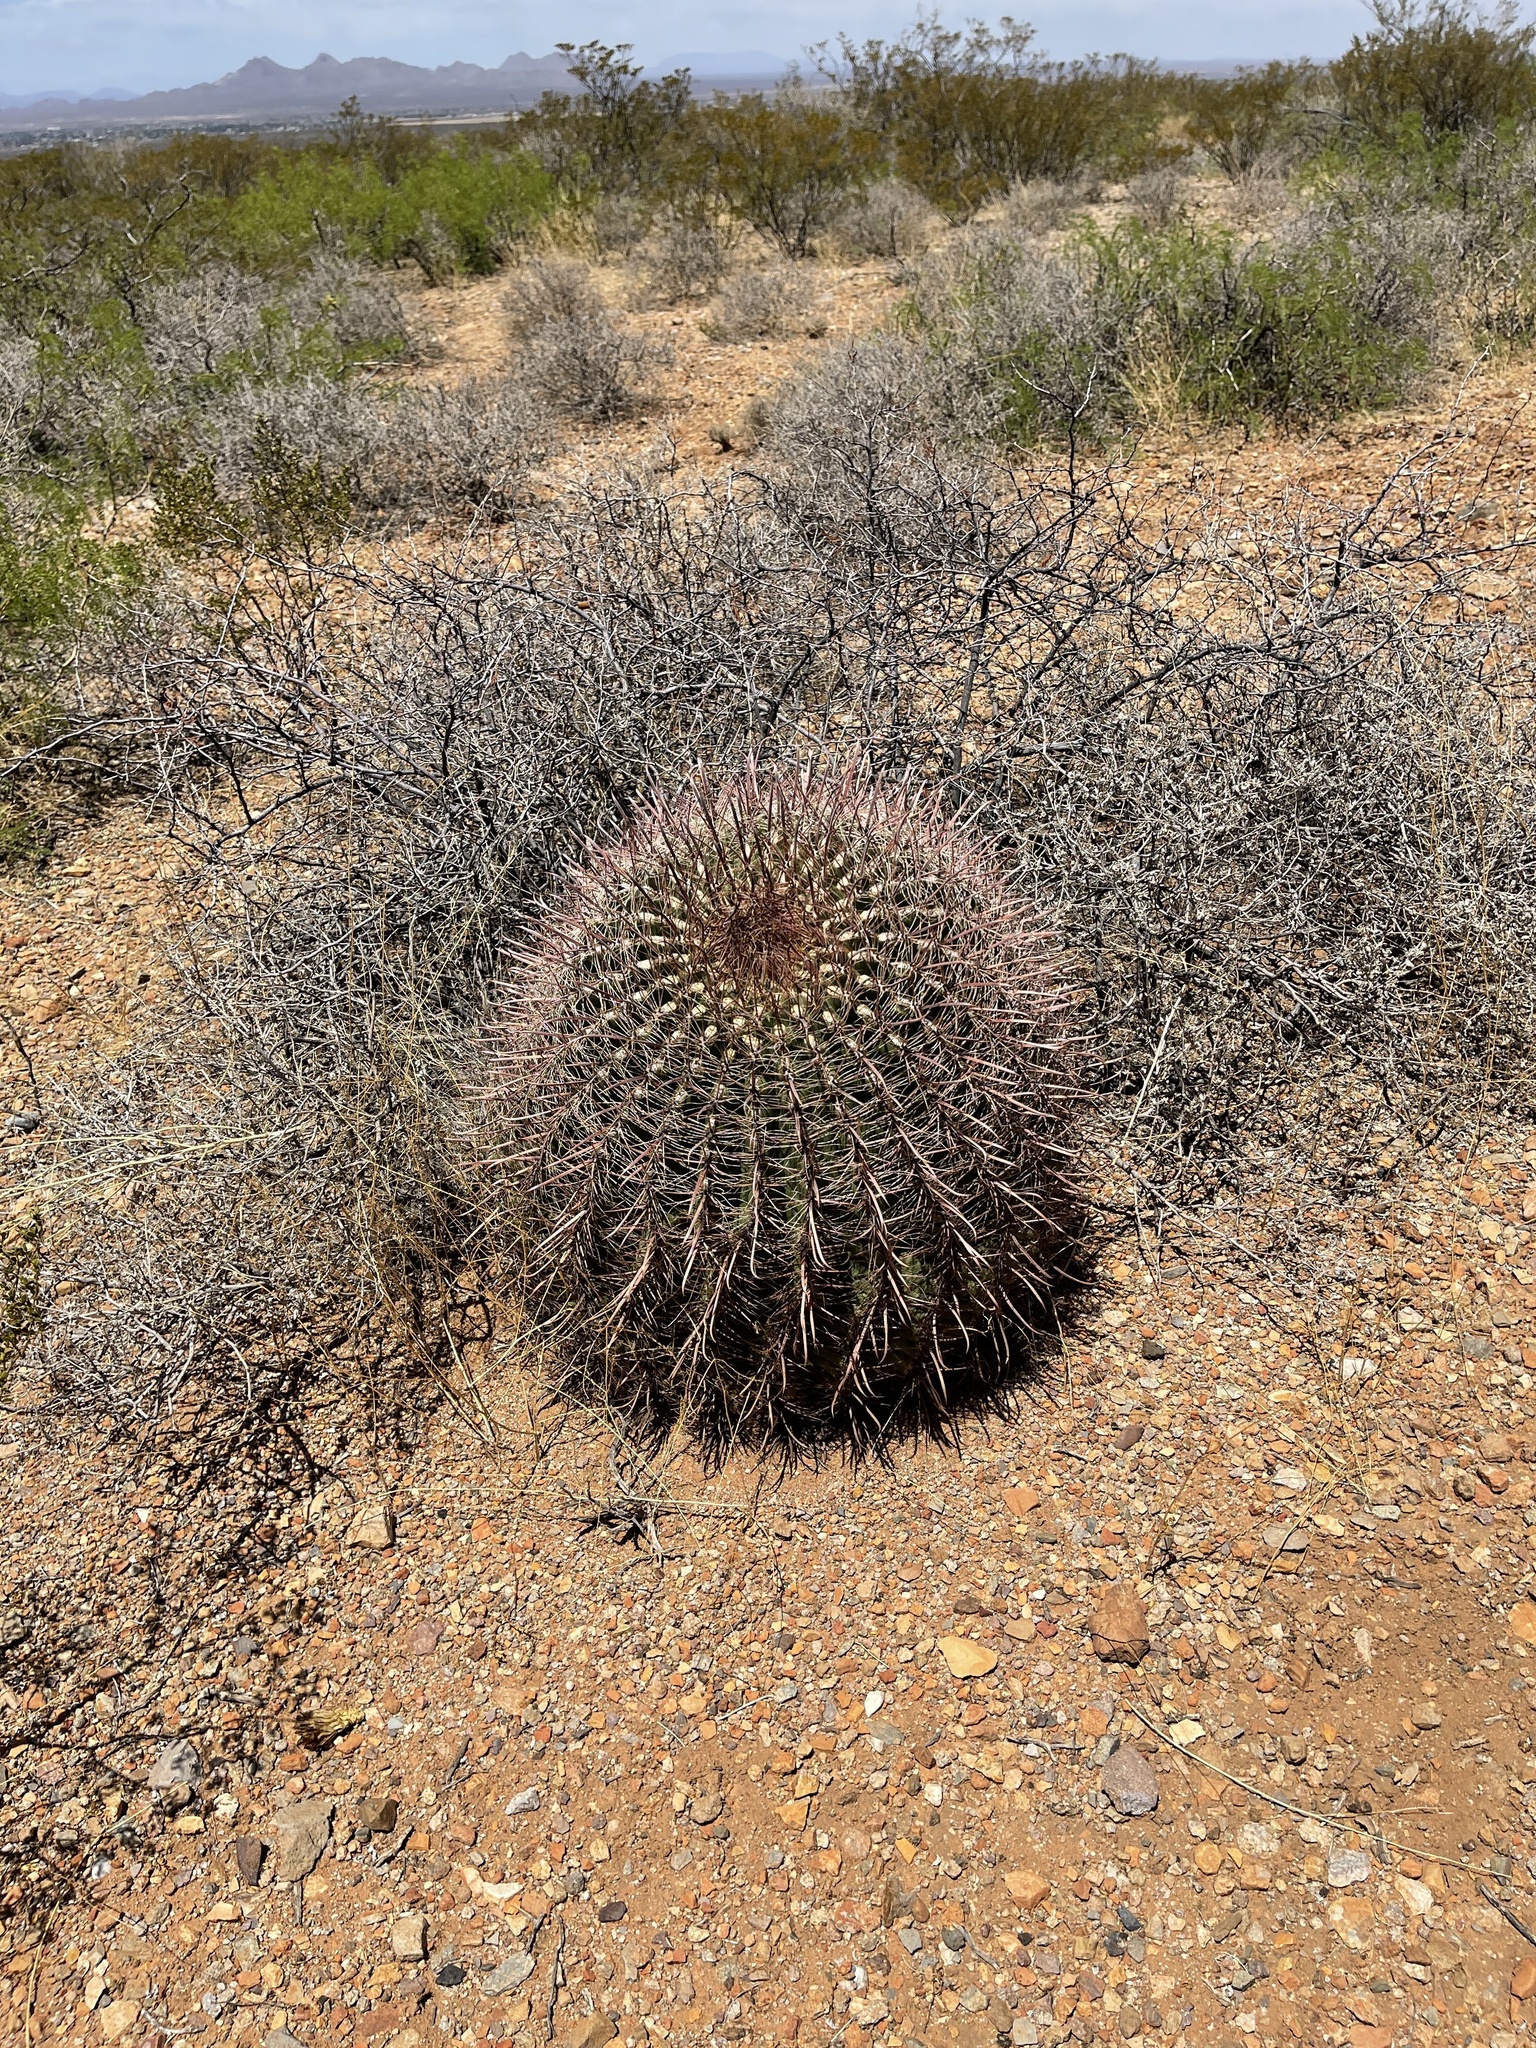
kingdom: Plantae
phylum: Tracheophyta
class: Magnoliopsida
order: Caryophyllales
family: Cactaceae
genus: Ferocactus
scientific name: Ferocactus wislizeni
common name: Candy barrel cactus
